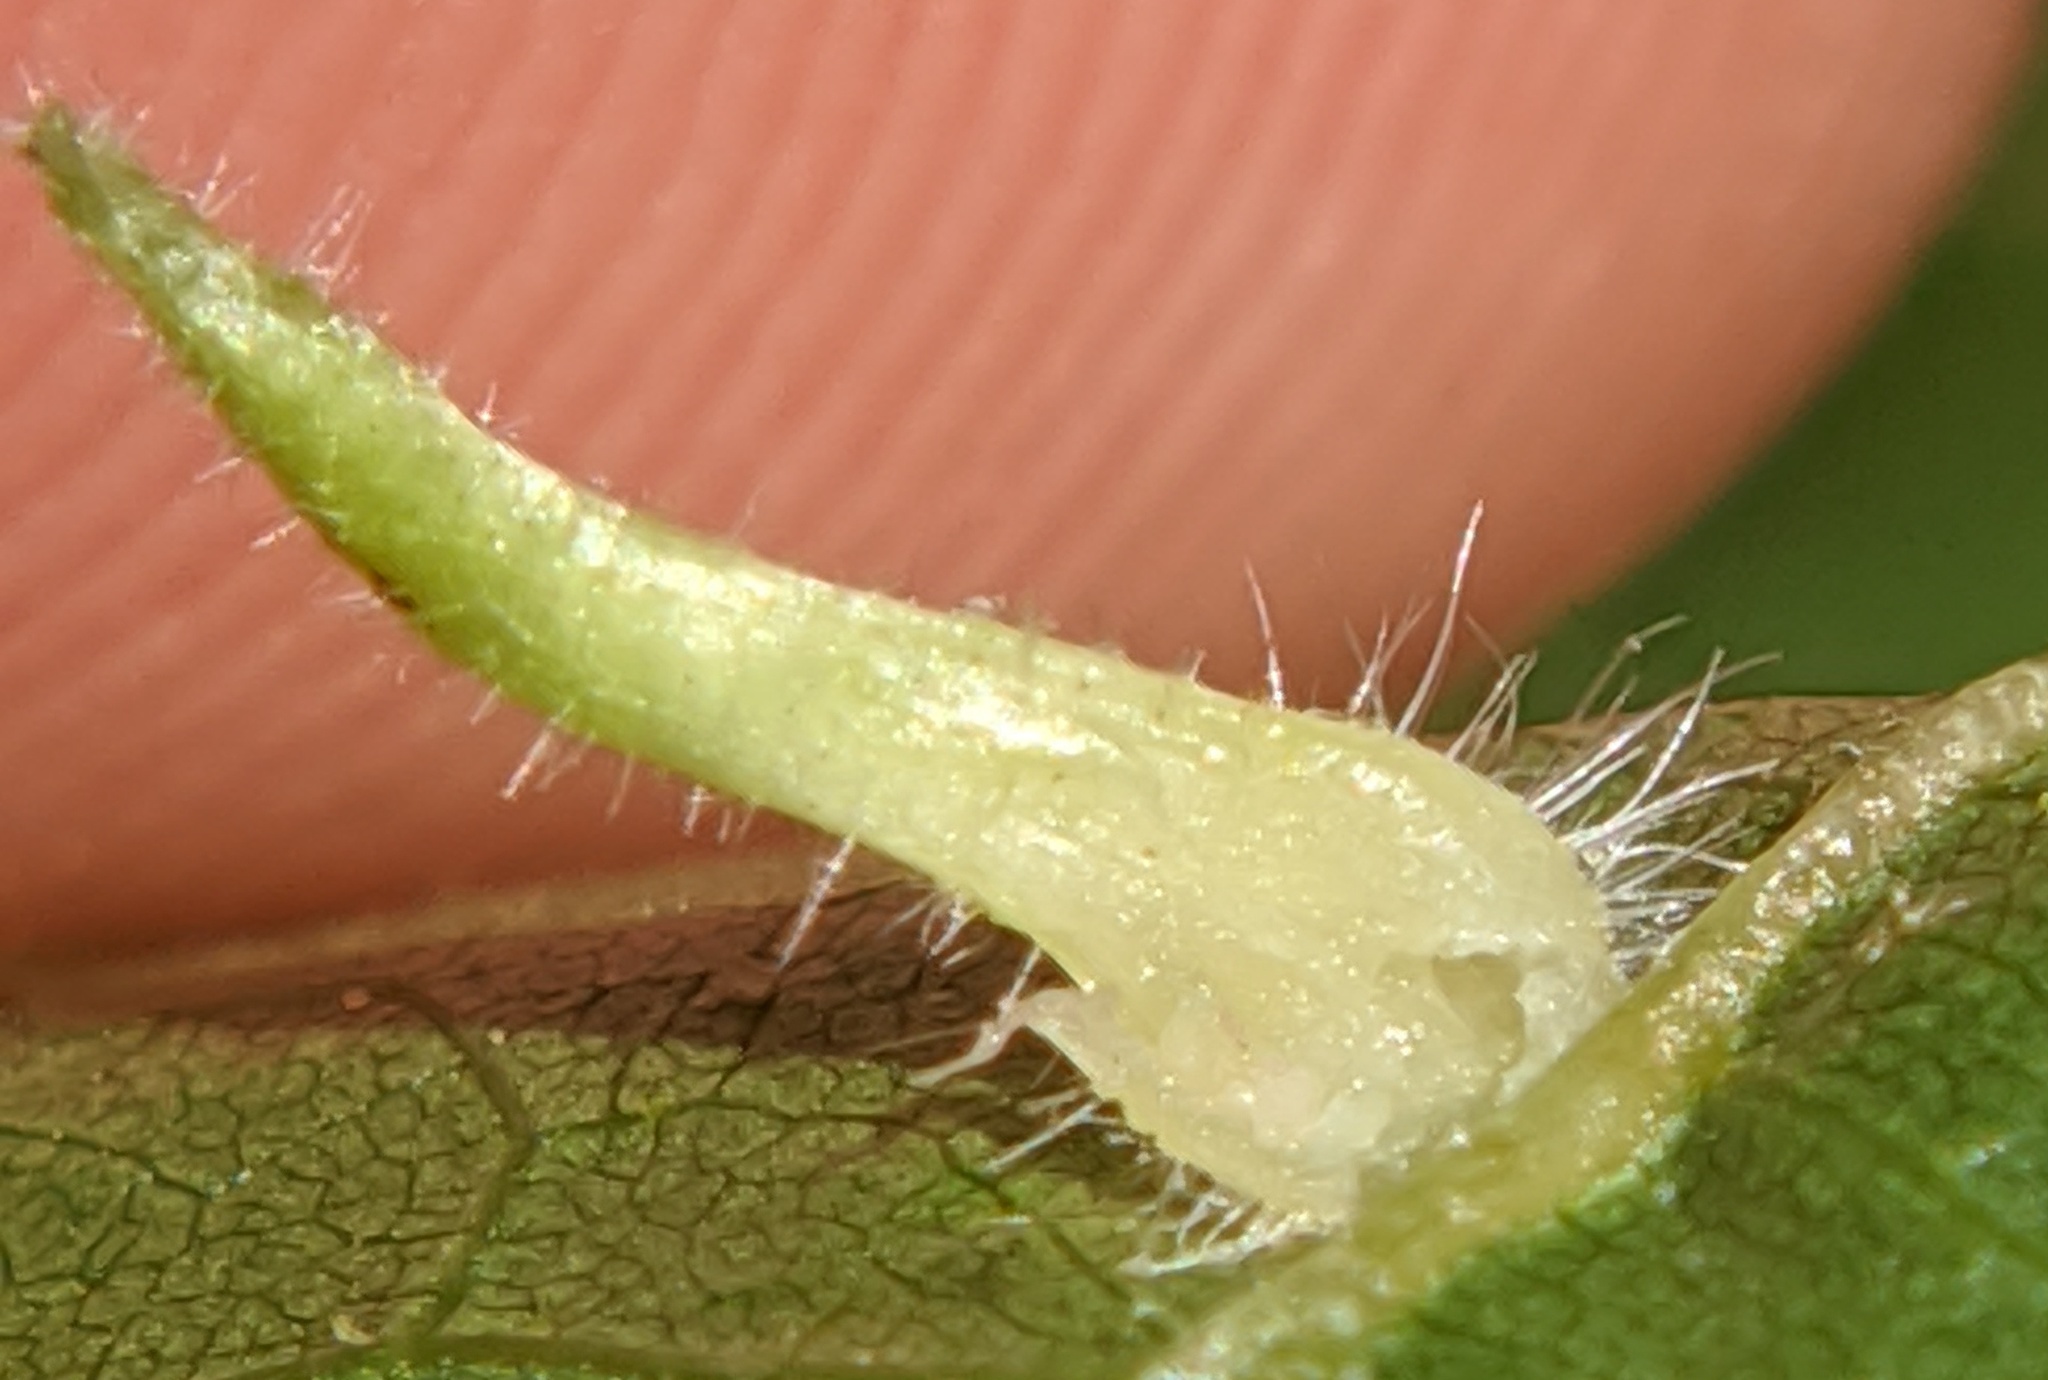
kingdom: Animalia
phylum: Arthropoda
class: Insecta
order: Diptera
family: Cecidomyiidae
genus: Caryomyia
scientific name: Caryomyia ansericollum
